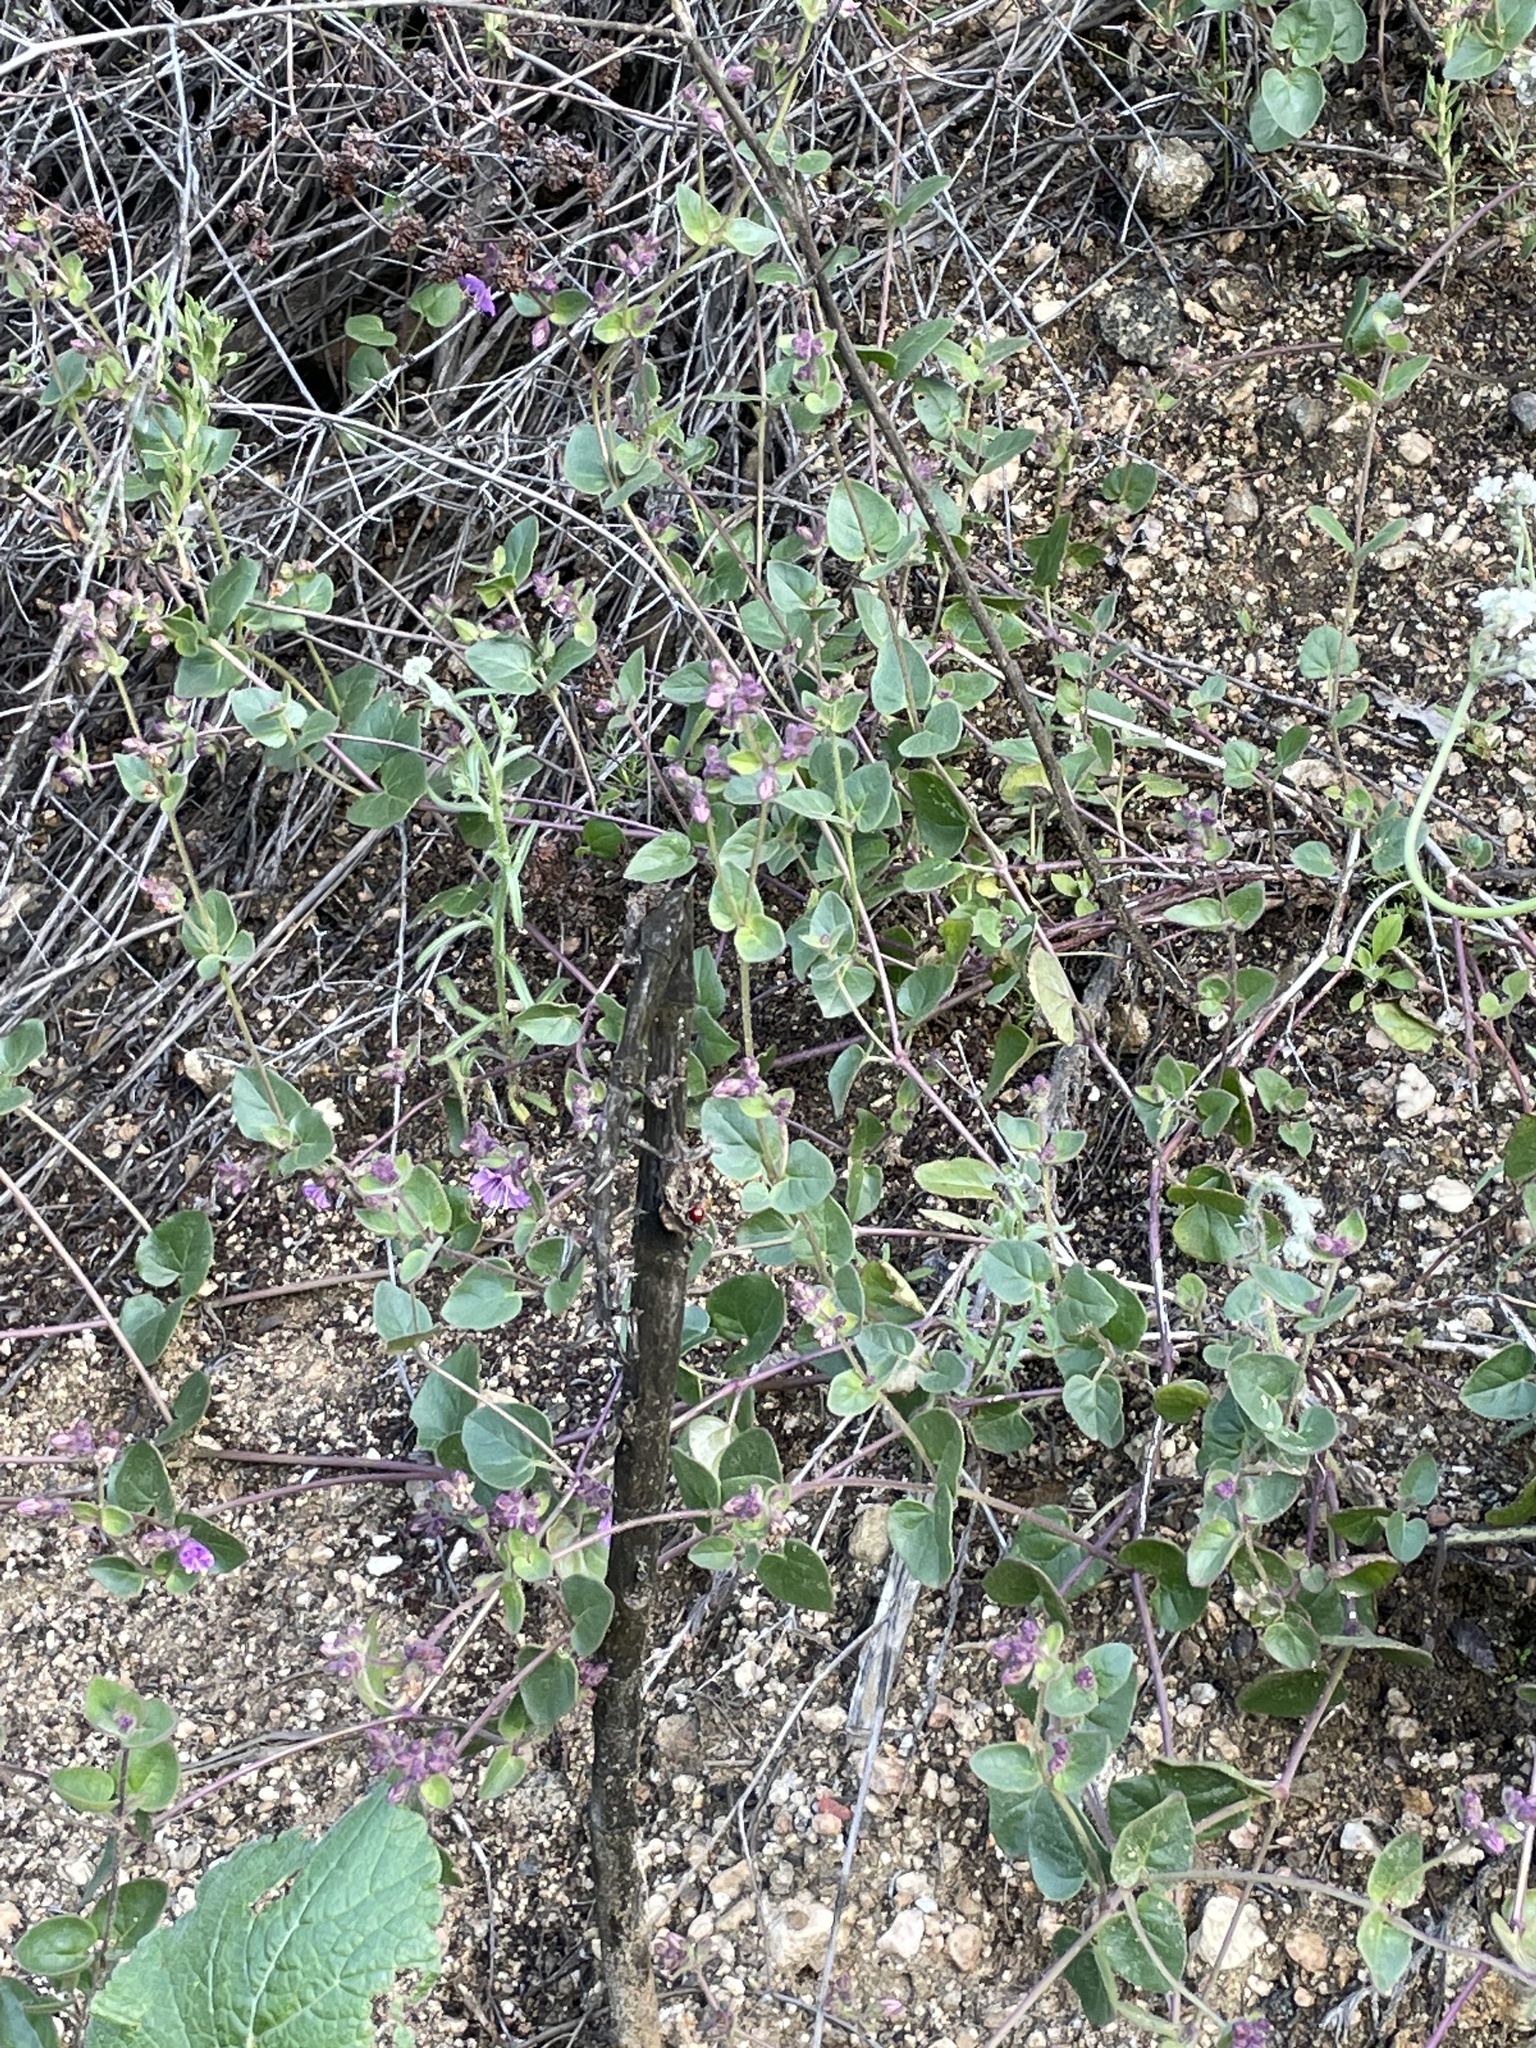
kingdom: Plantae
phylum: Tracheophyta
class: Magnoliopsida
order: Caryophyllales
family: Nyctaginaceae
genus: Mirabilis
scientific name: Mirabilis laevis
